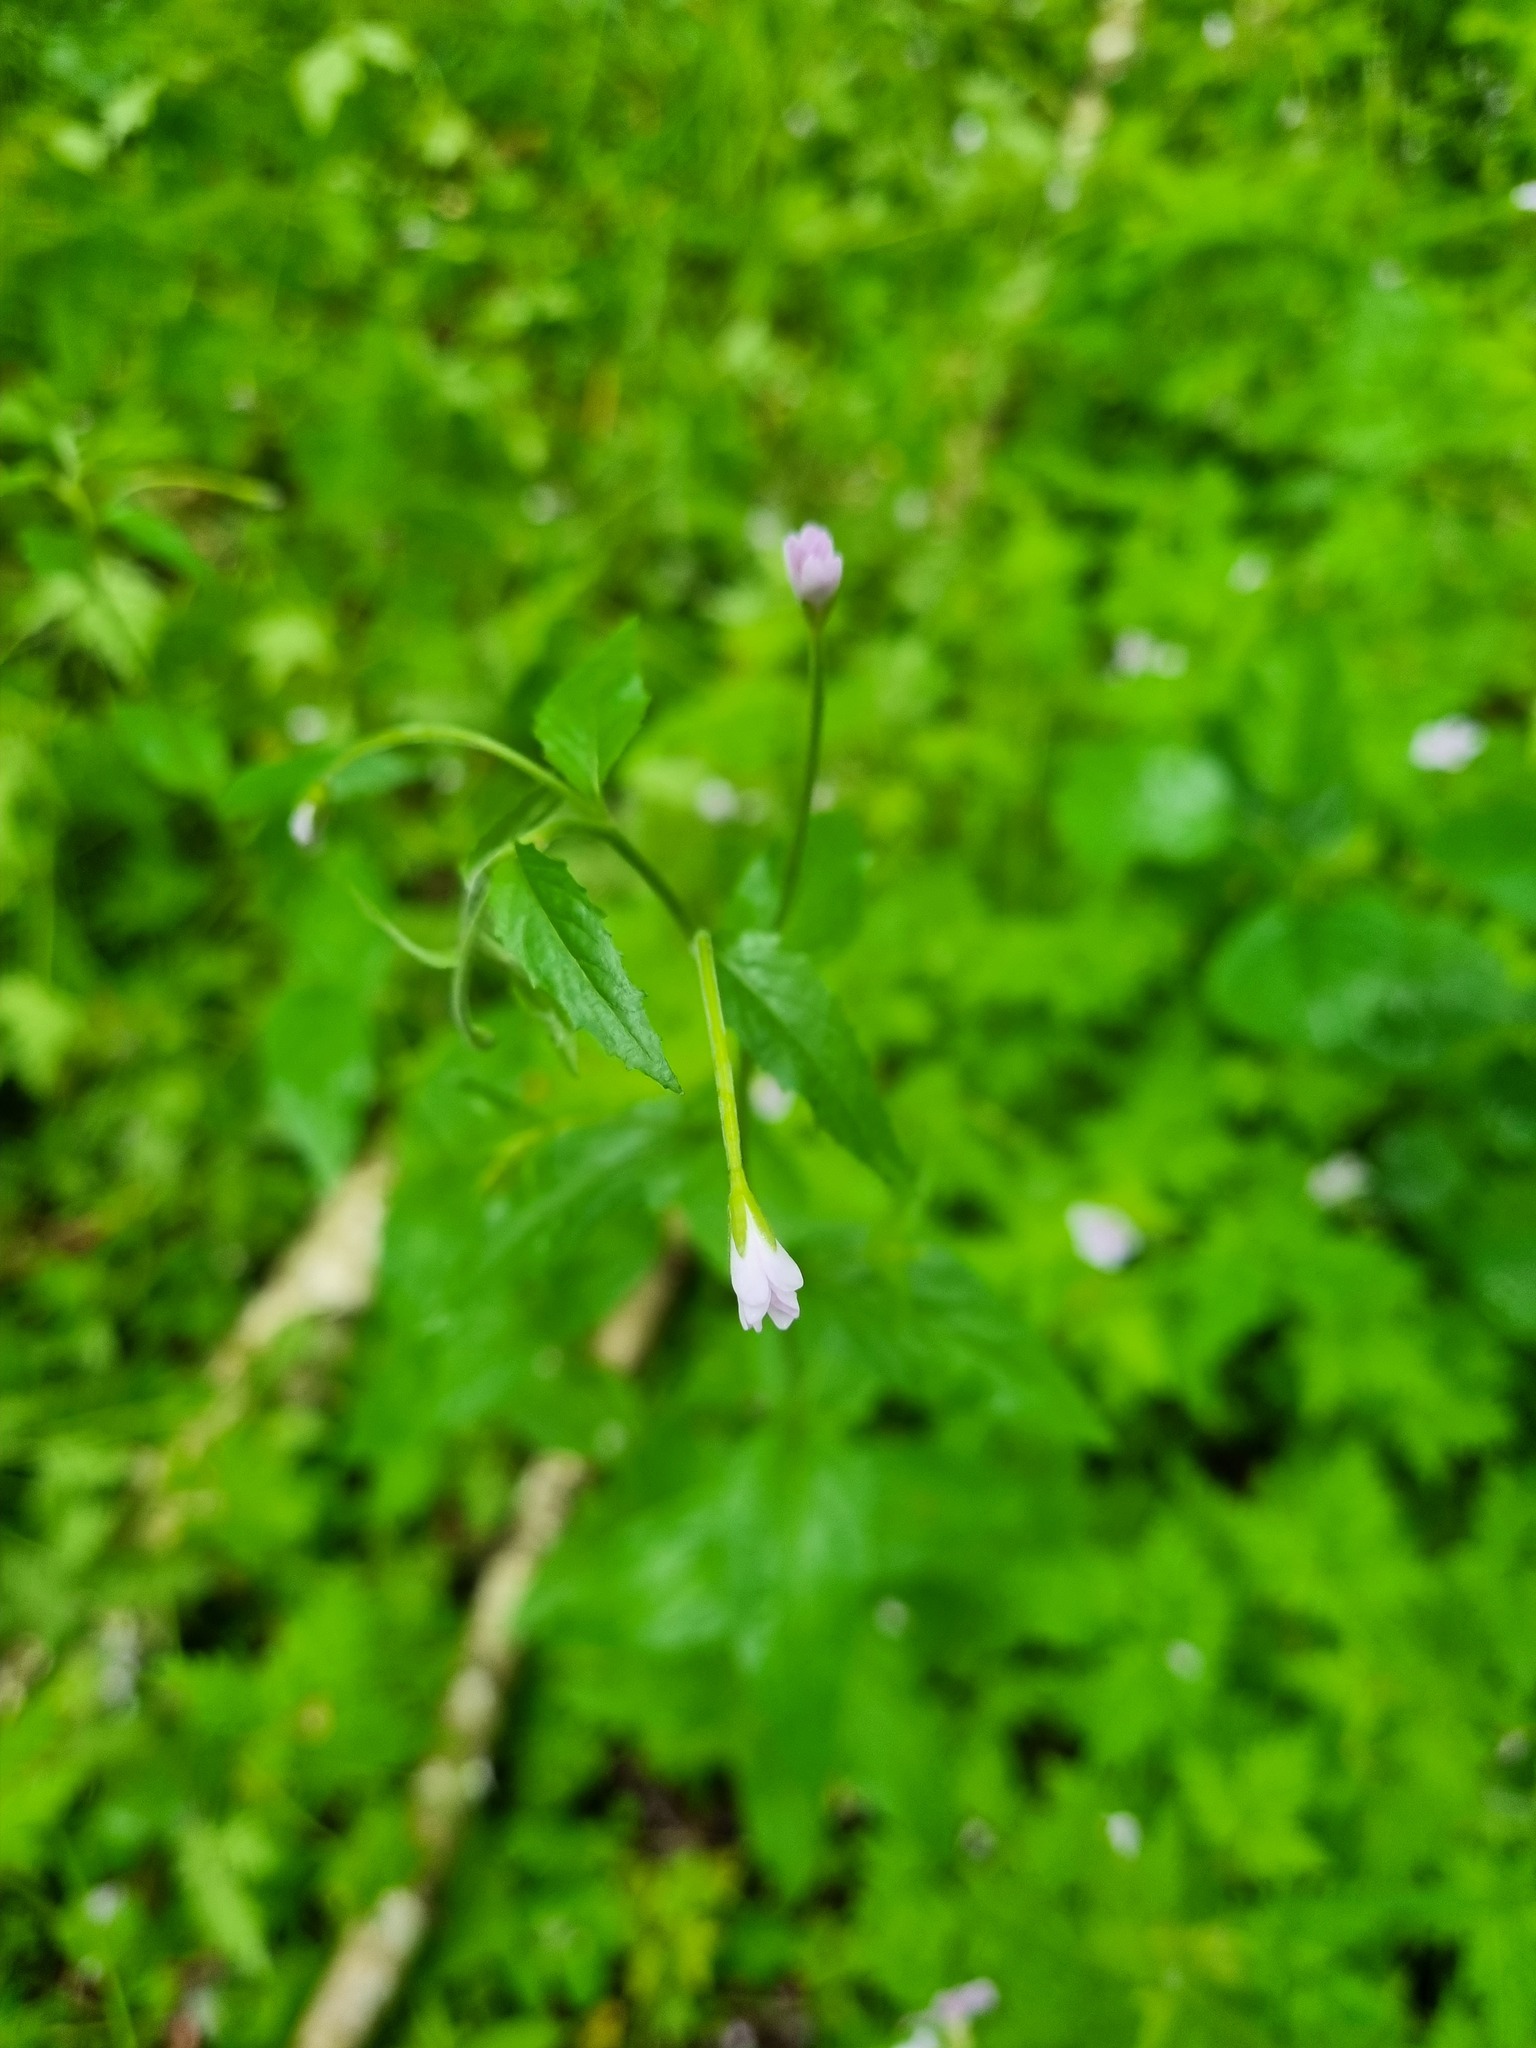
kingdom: Plantae
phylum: Tracheophyta
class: Magnoliopsida
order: Myrtales
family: Onagraceae
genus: Epilobium
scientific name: Epilobium montanum
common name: Broad-leaved willowherb
